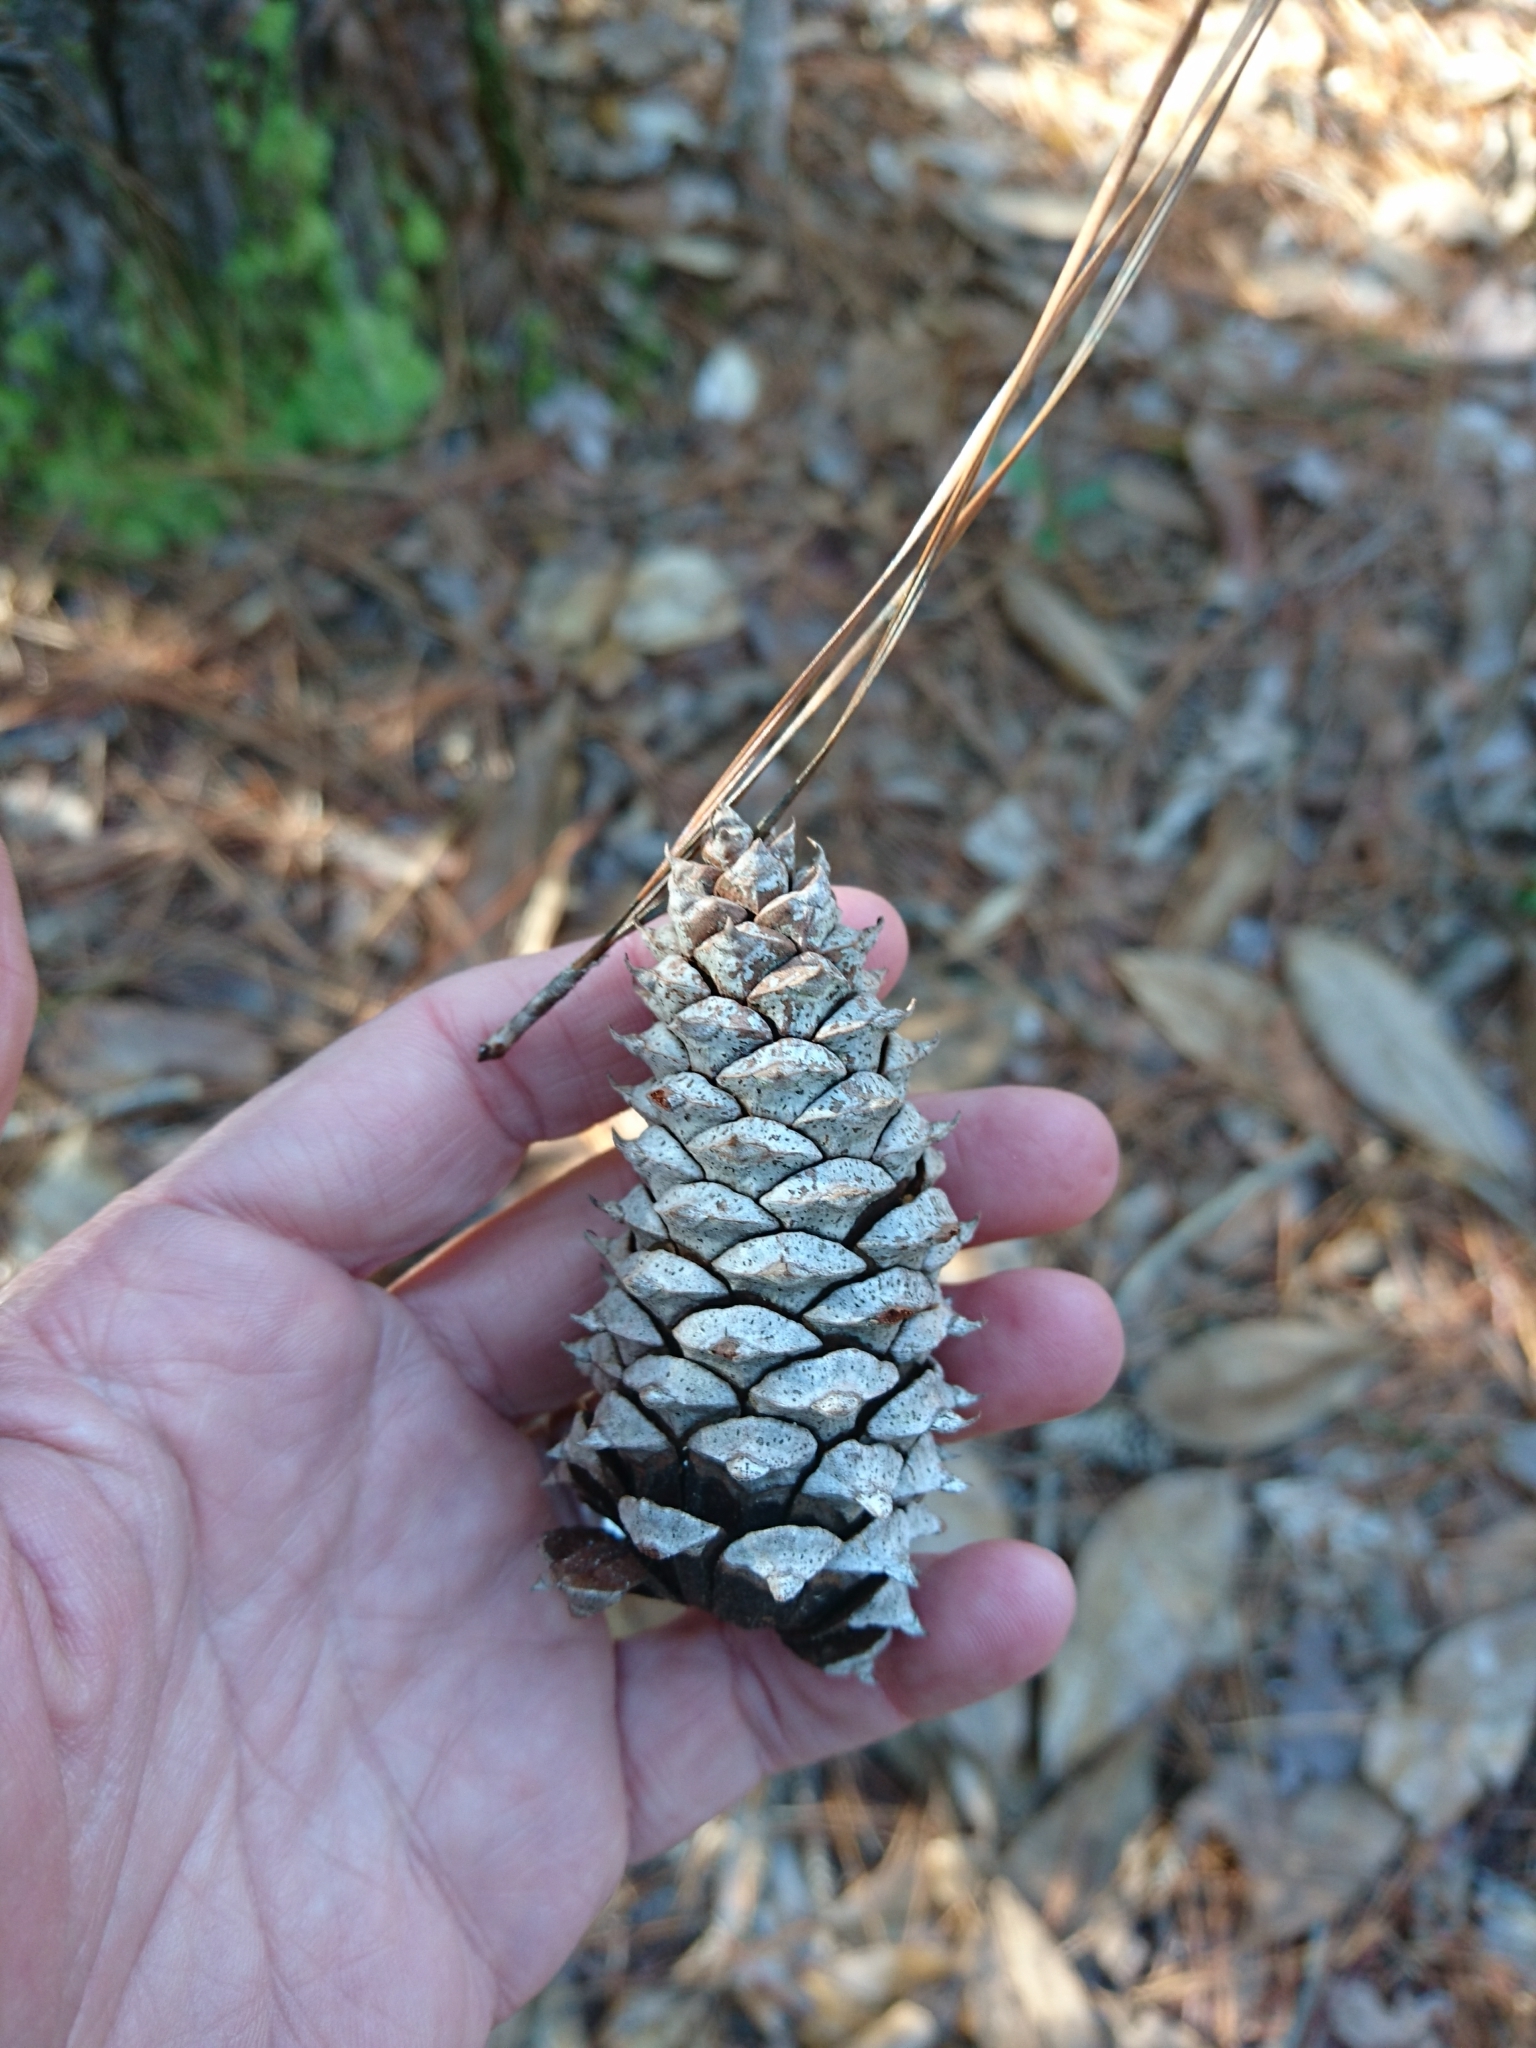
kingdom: Plantae
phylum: Tracheophyta
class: Pinopsida
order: Pinales
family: Pinaceae
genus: Pinus
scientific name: Pinus elliottii
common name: Slash pine
